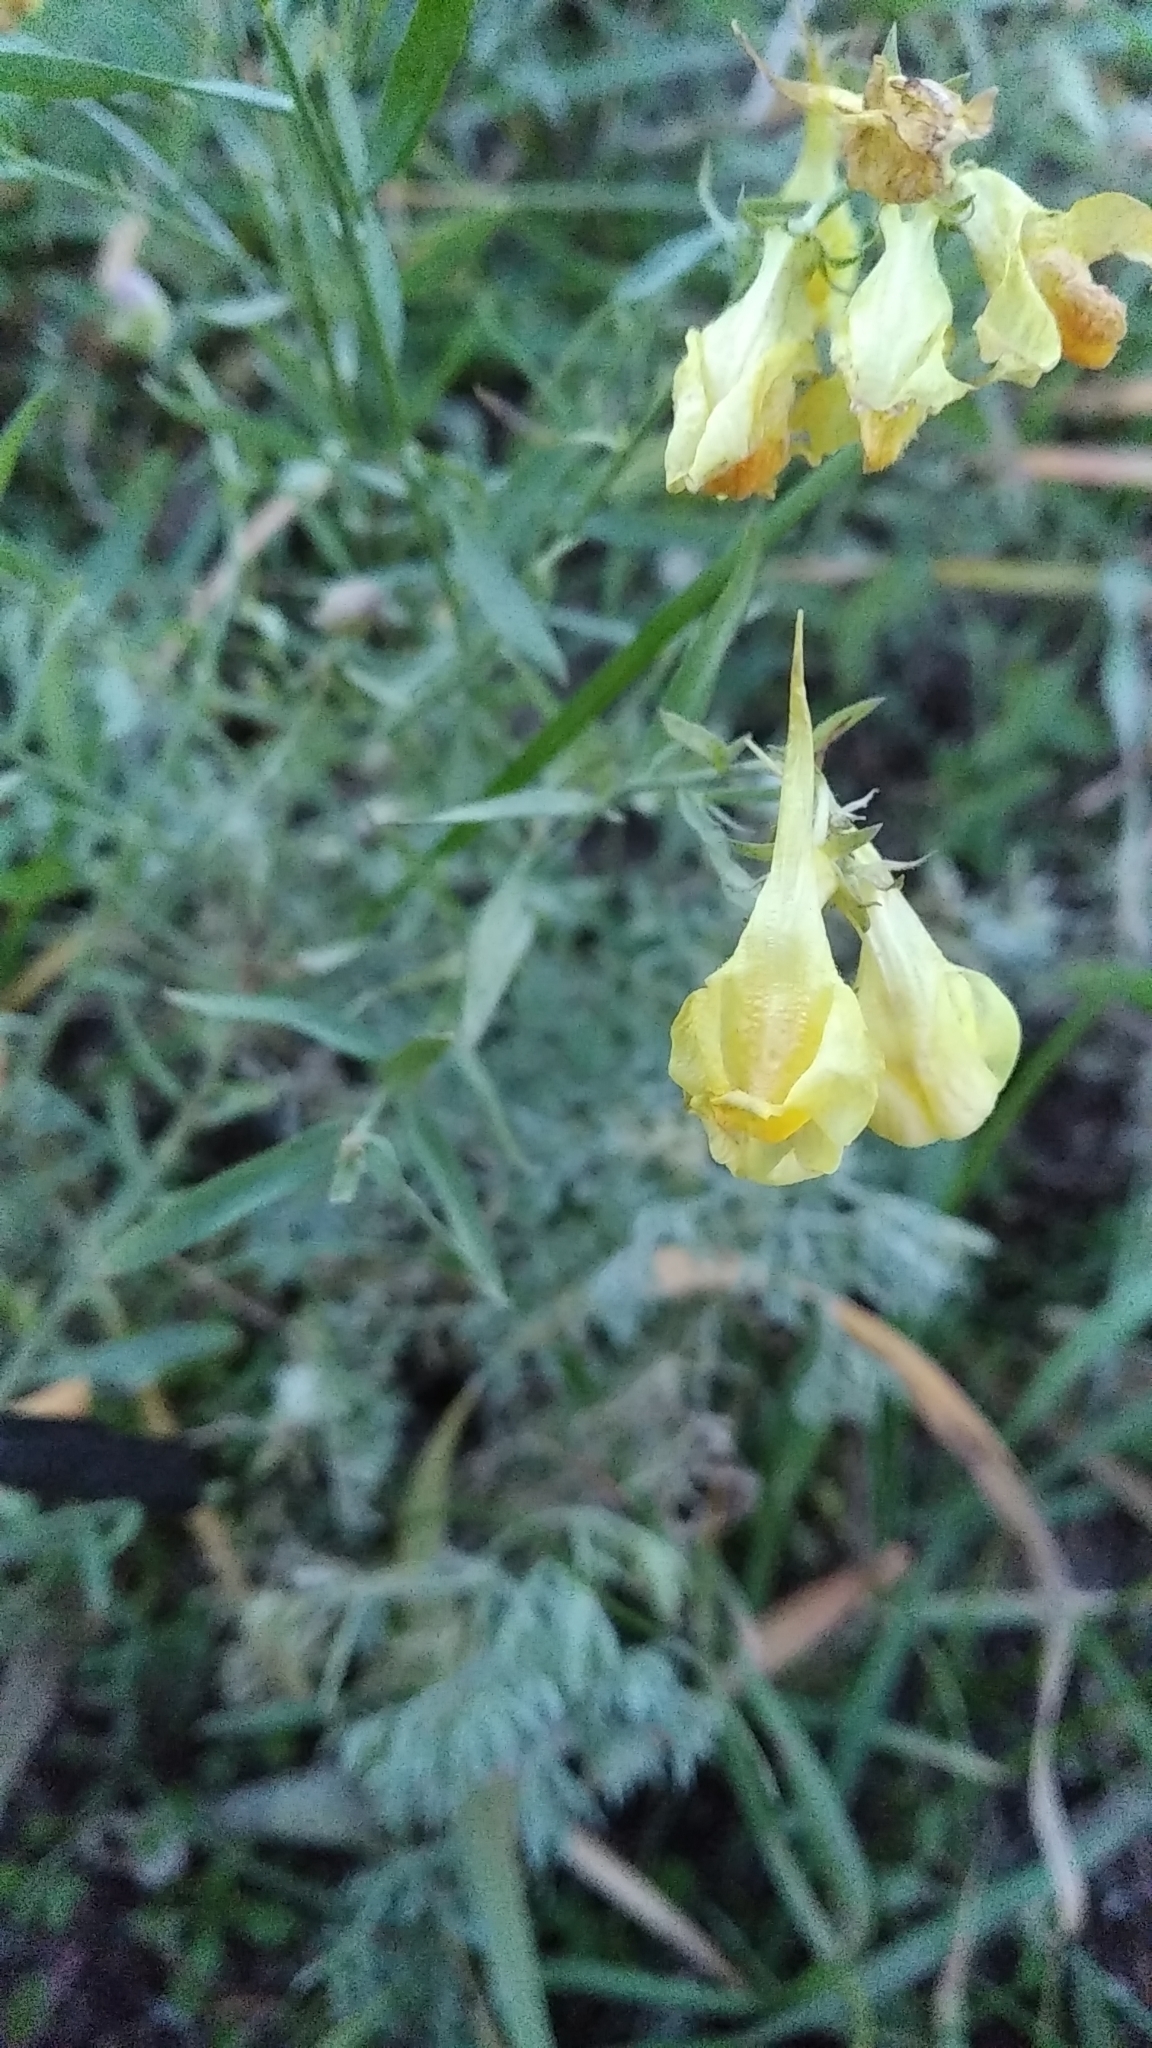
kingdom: Plantae
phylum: Tracheophyta
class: Magnoliopsida
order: Lamiales
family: Plantaginaceae
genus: Linaria
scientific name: Linaria vulgaris
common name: Butter and eggs
